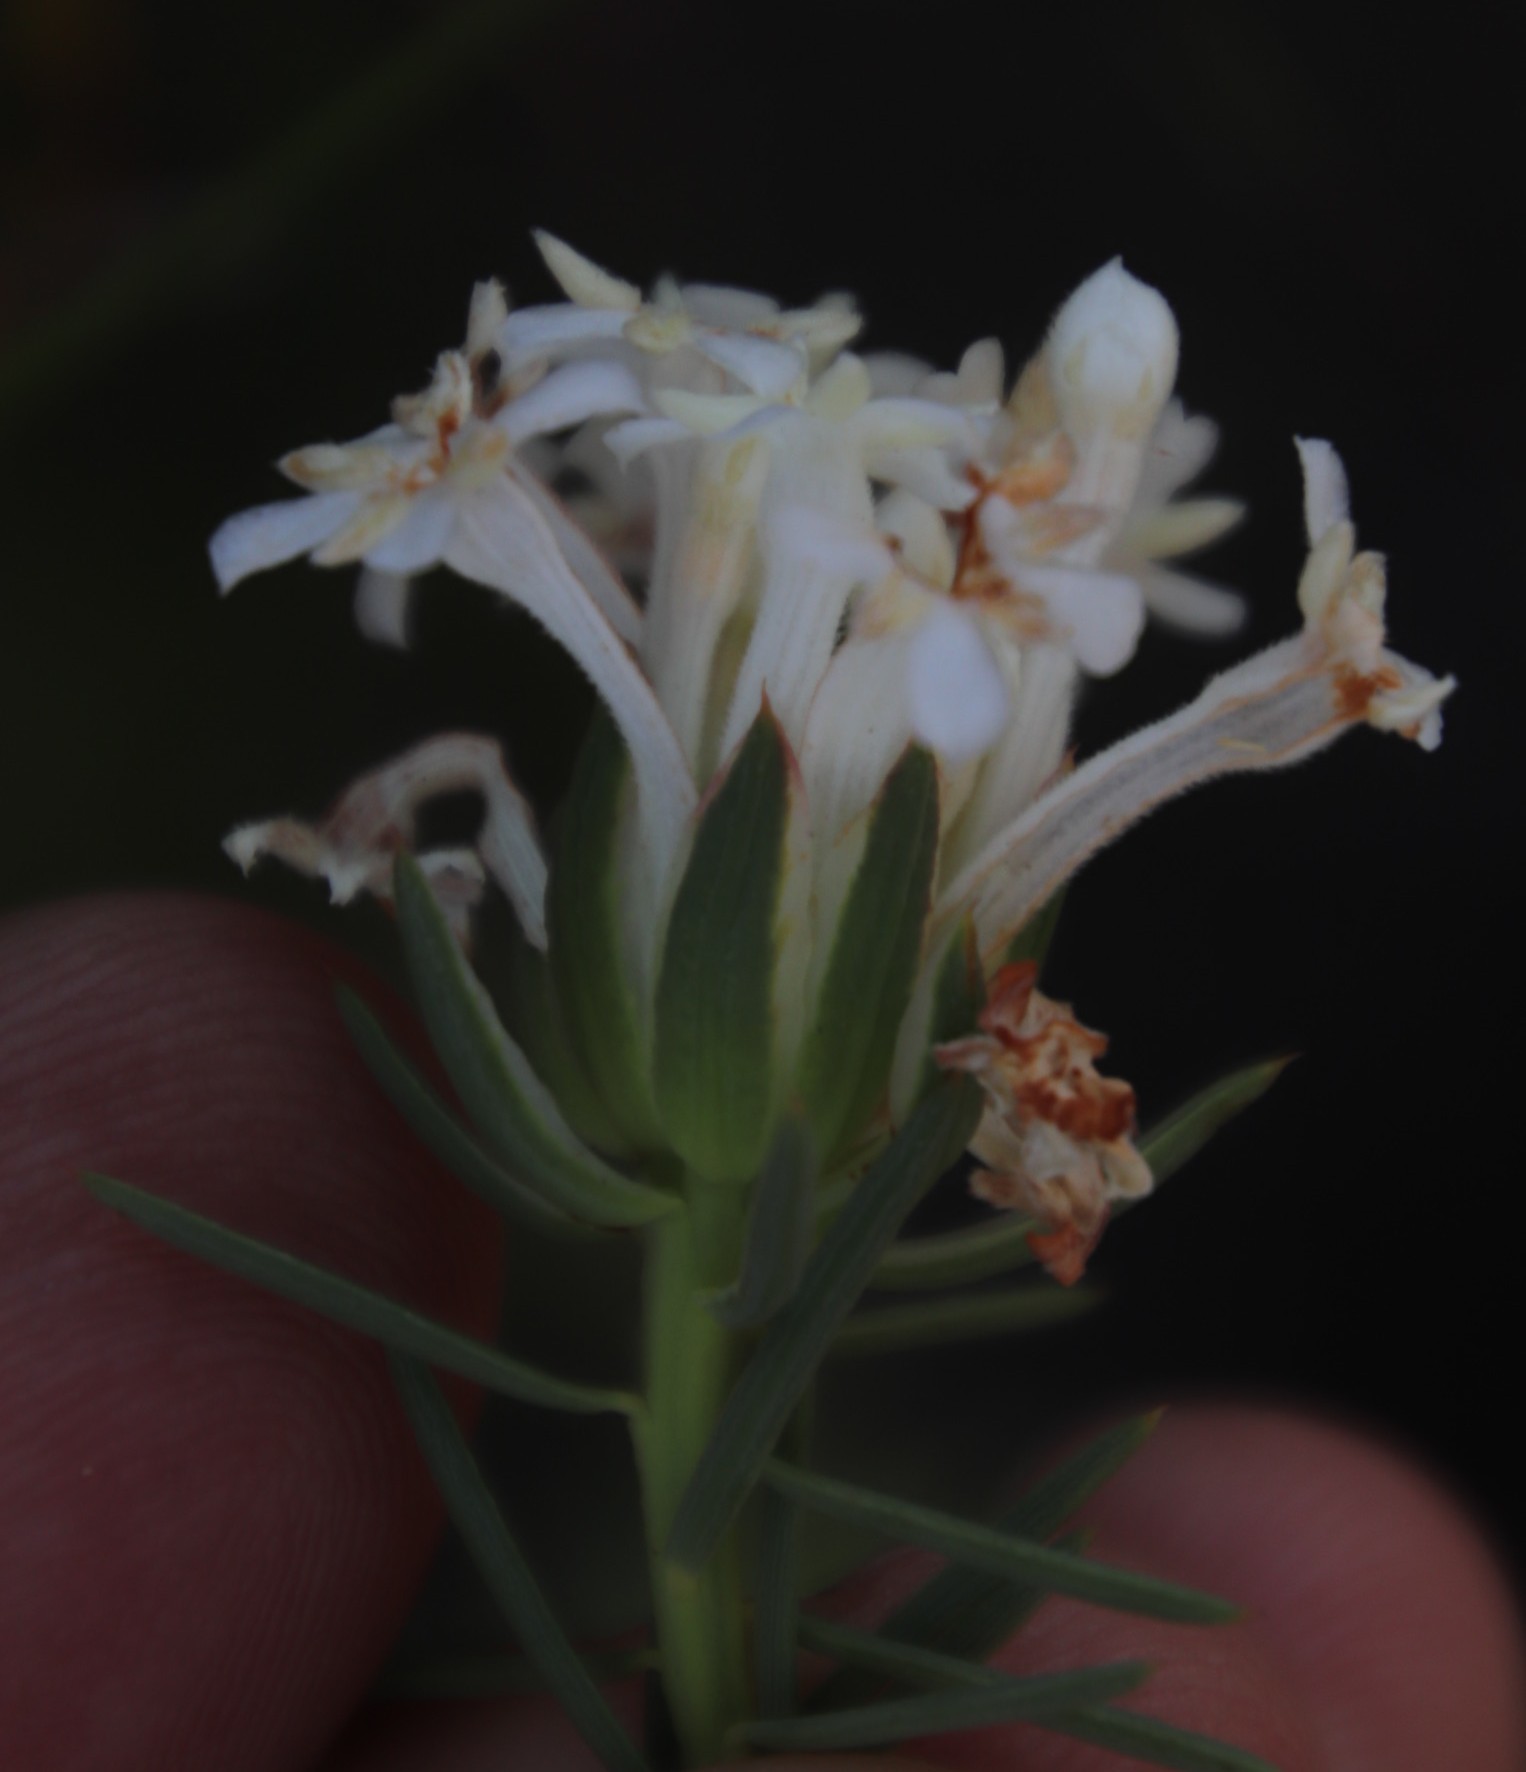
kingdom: Plantae
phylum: Tracheophyta
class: Magnoliopsida
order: Malvales
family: Thymelaeaceae
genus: Gnidia
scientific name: Gnidia pinifolia
